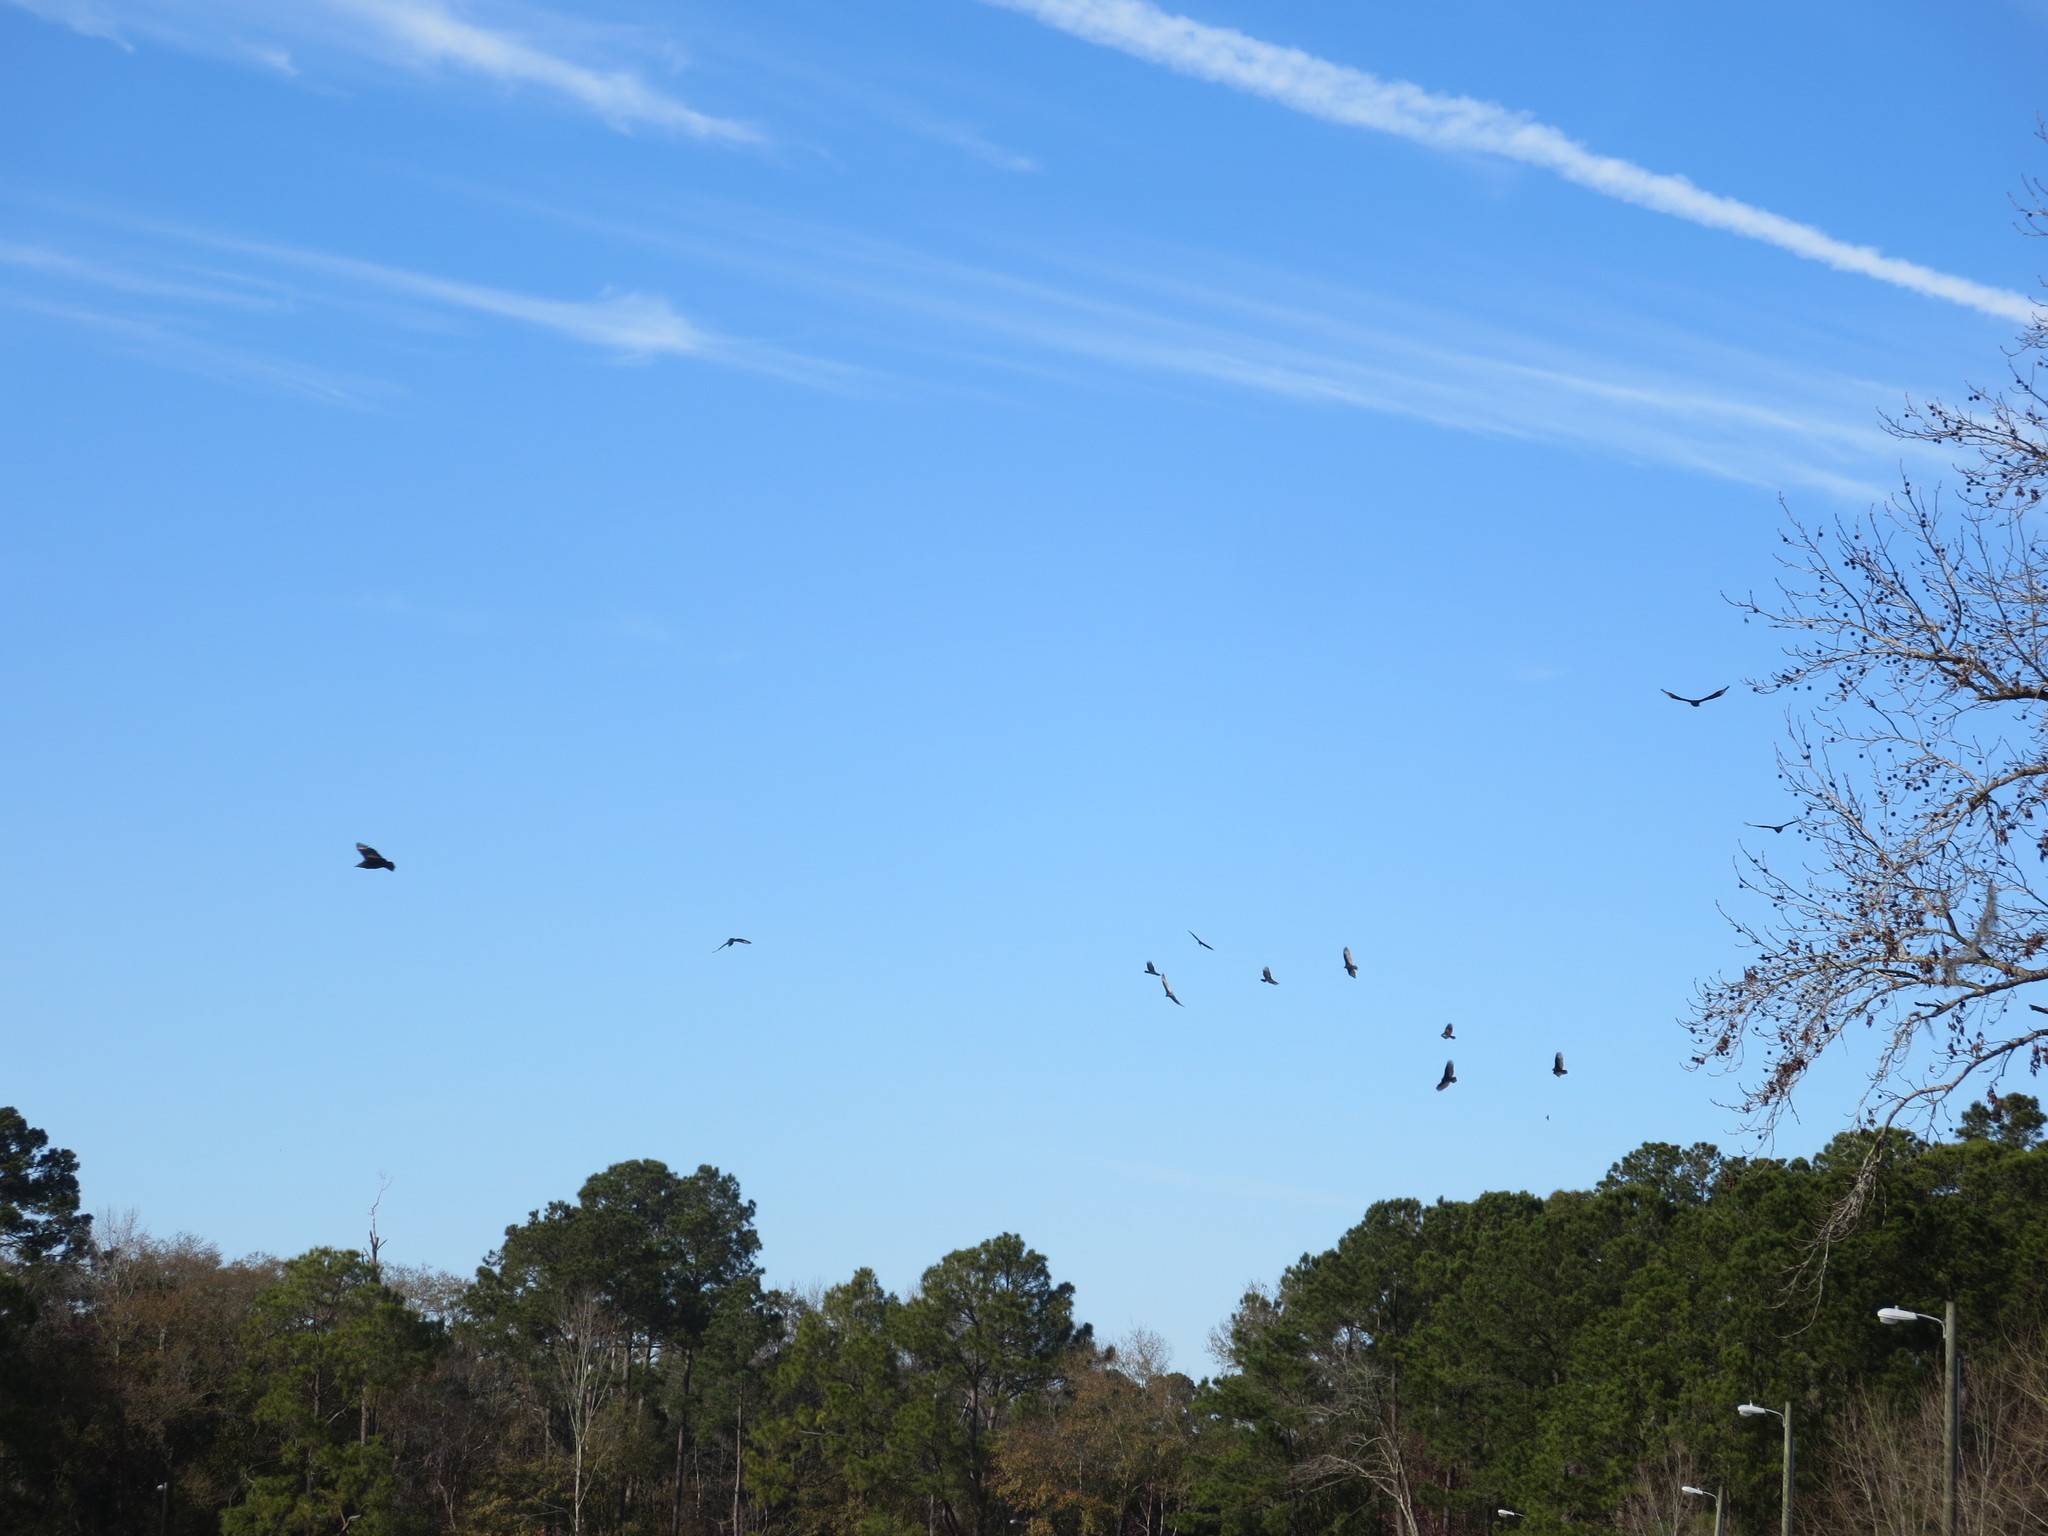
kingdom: Animalia
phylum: Chordata
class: Aves
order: Accipitriformes
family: Cathartidae
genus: Coragyps
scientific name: Coragyps atratus
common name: Black vulture
